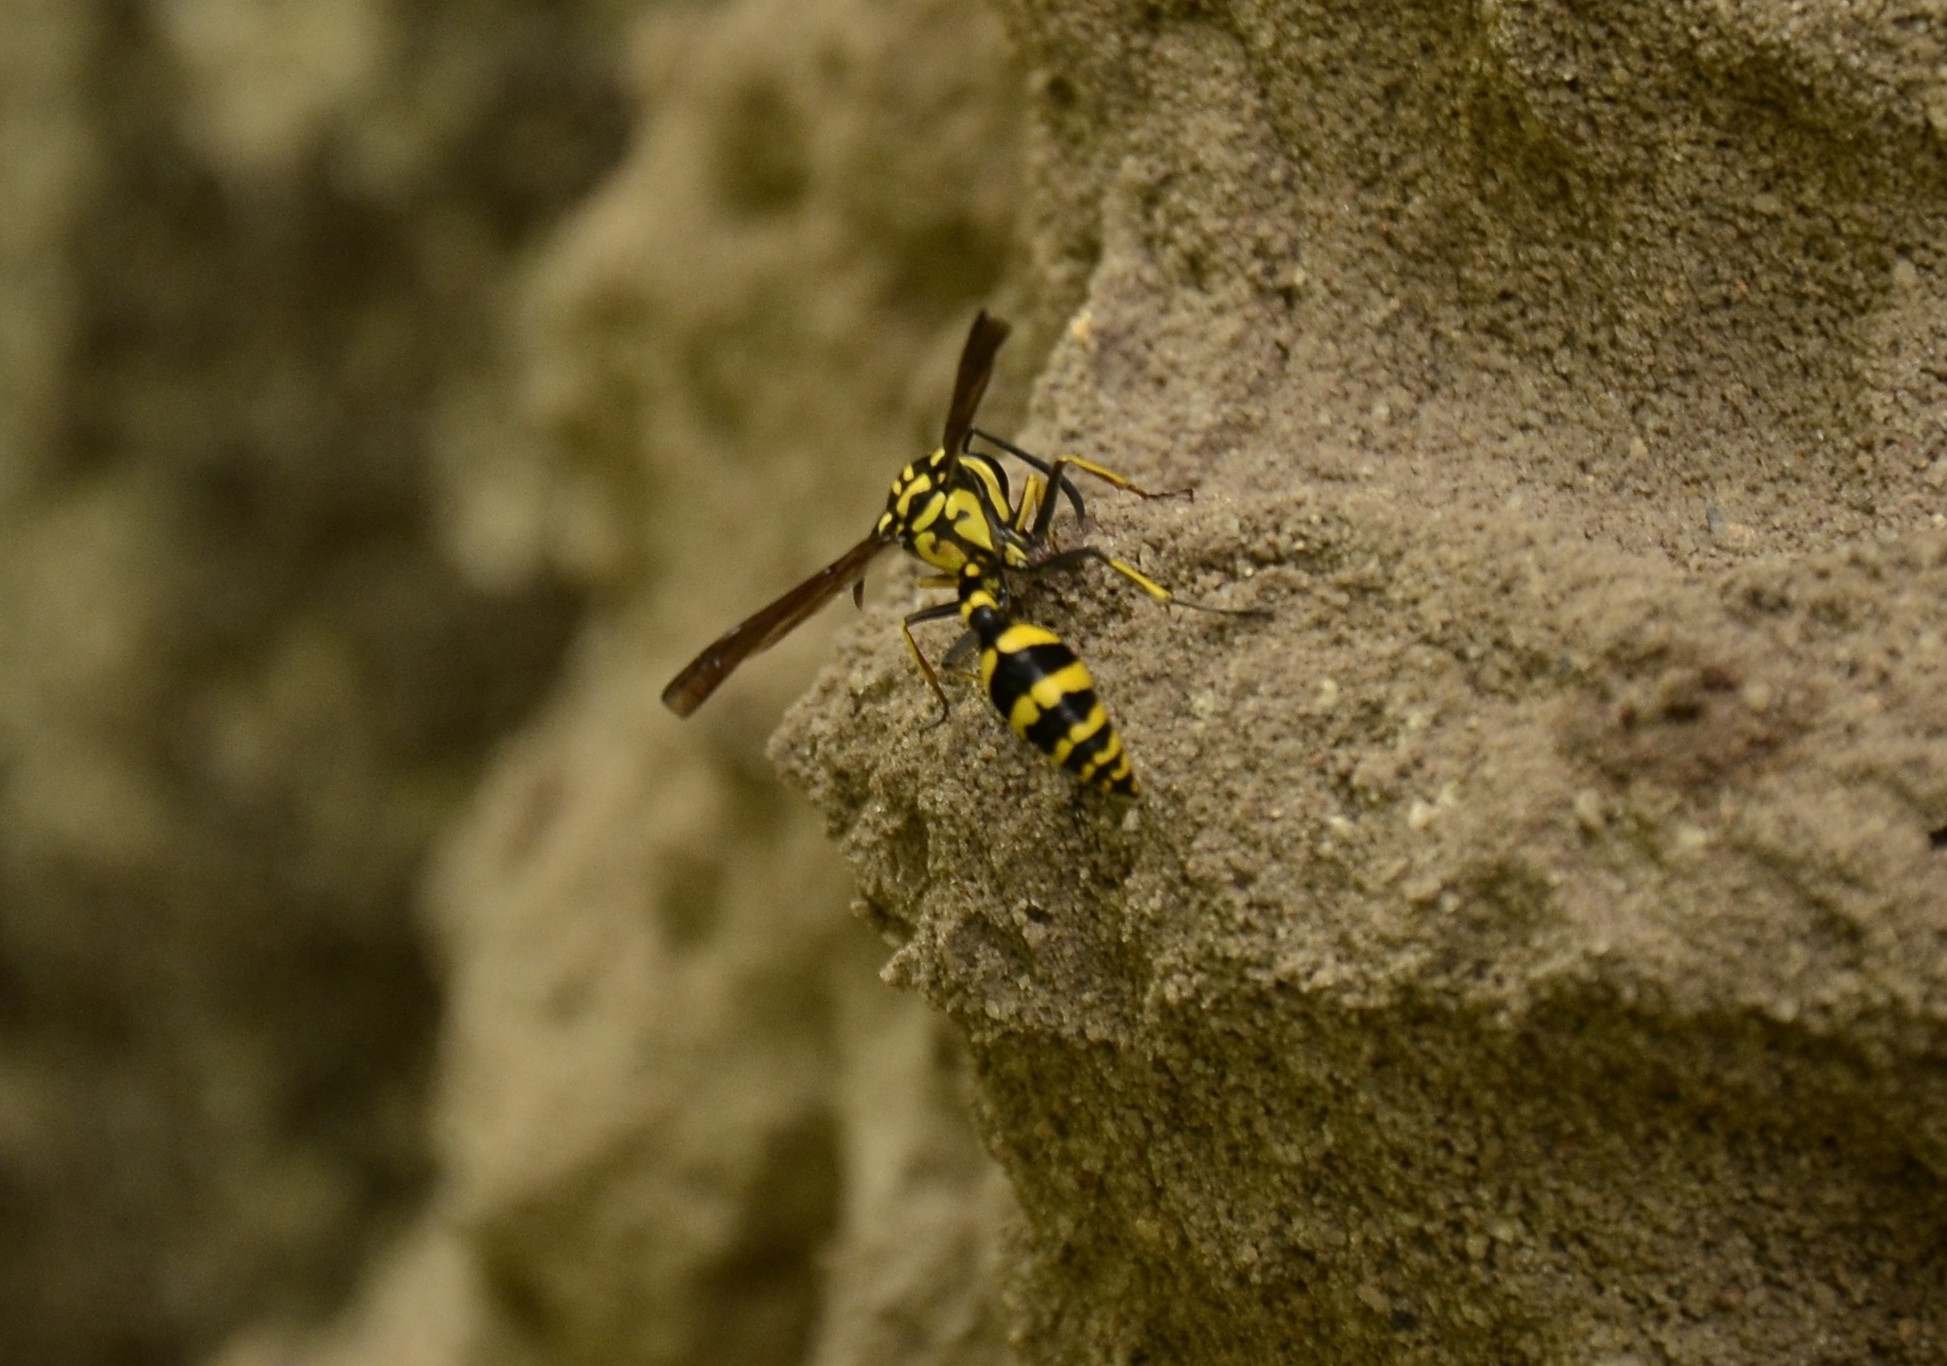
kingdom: Animalia
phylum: Arthropoda
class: Insecta
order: Hymenoptera
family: Eumenidae
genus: Phimenes
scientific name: Phimenes flavopictus
